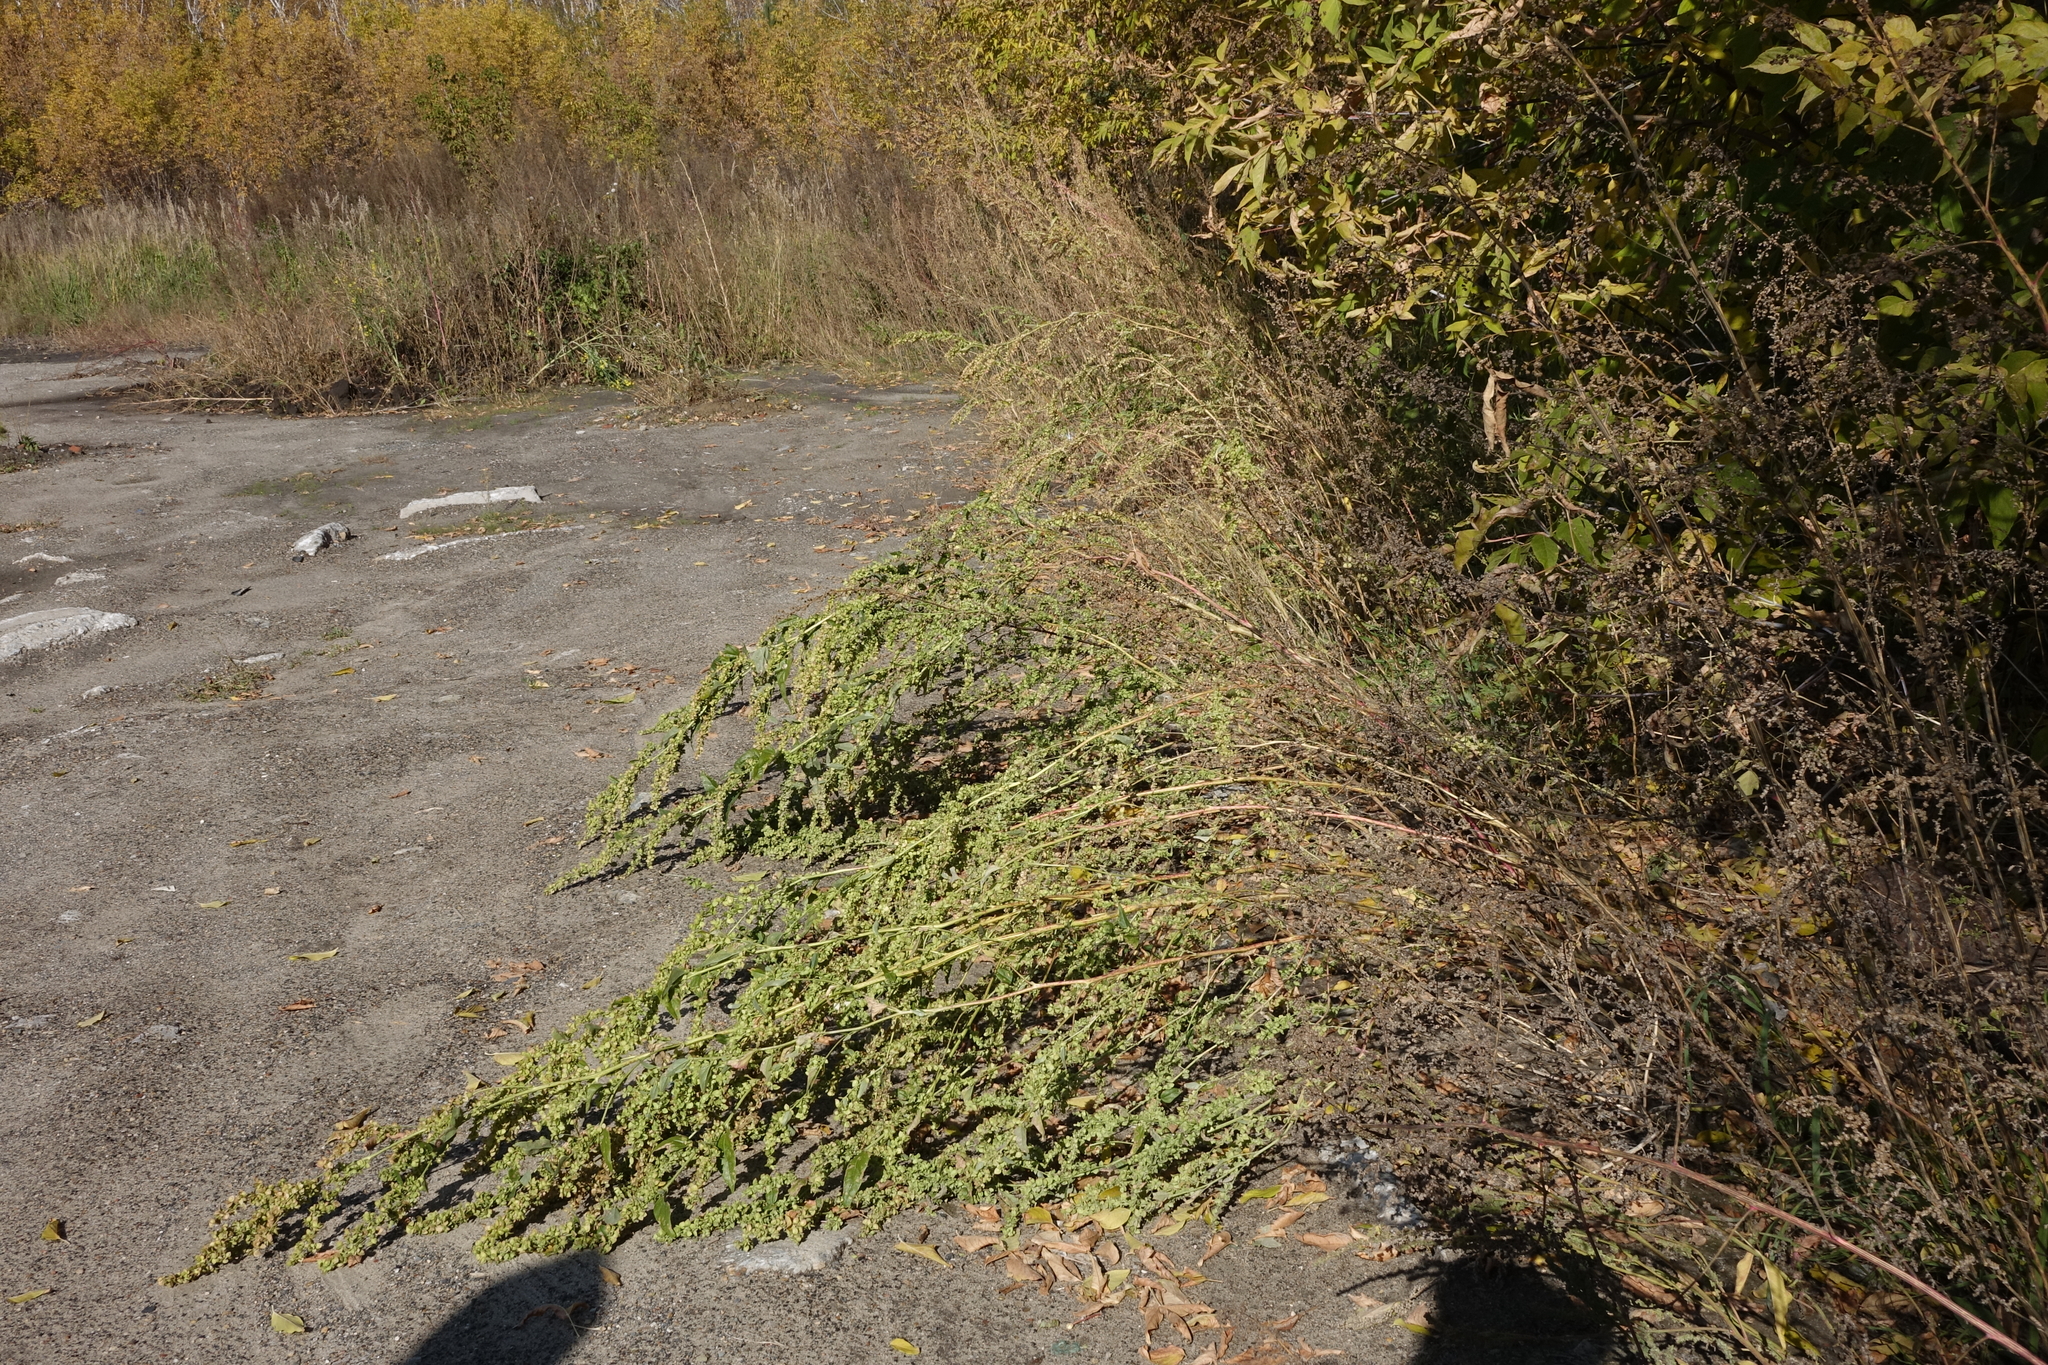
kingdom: Plantae
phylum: Tracheophyta
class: Magnoliopsida
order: Caryophyllales
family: Amaranthaceae
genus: Atriplex
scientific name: Atriplex sagittata
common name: Purple orache
